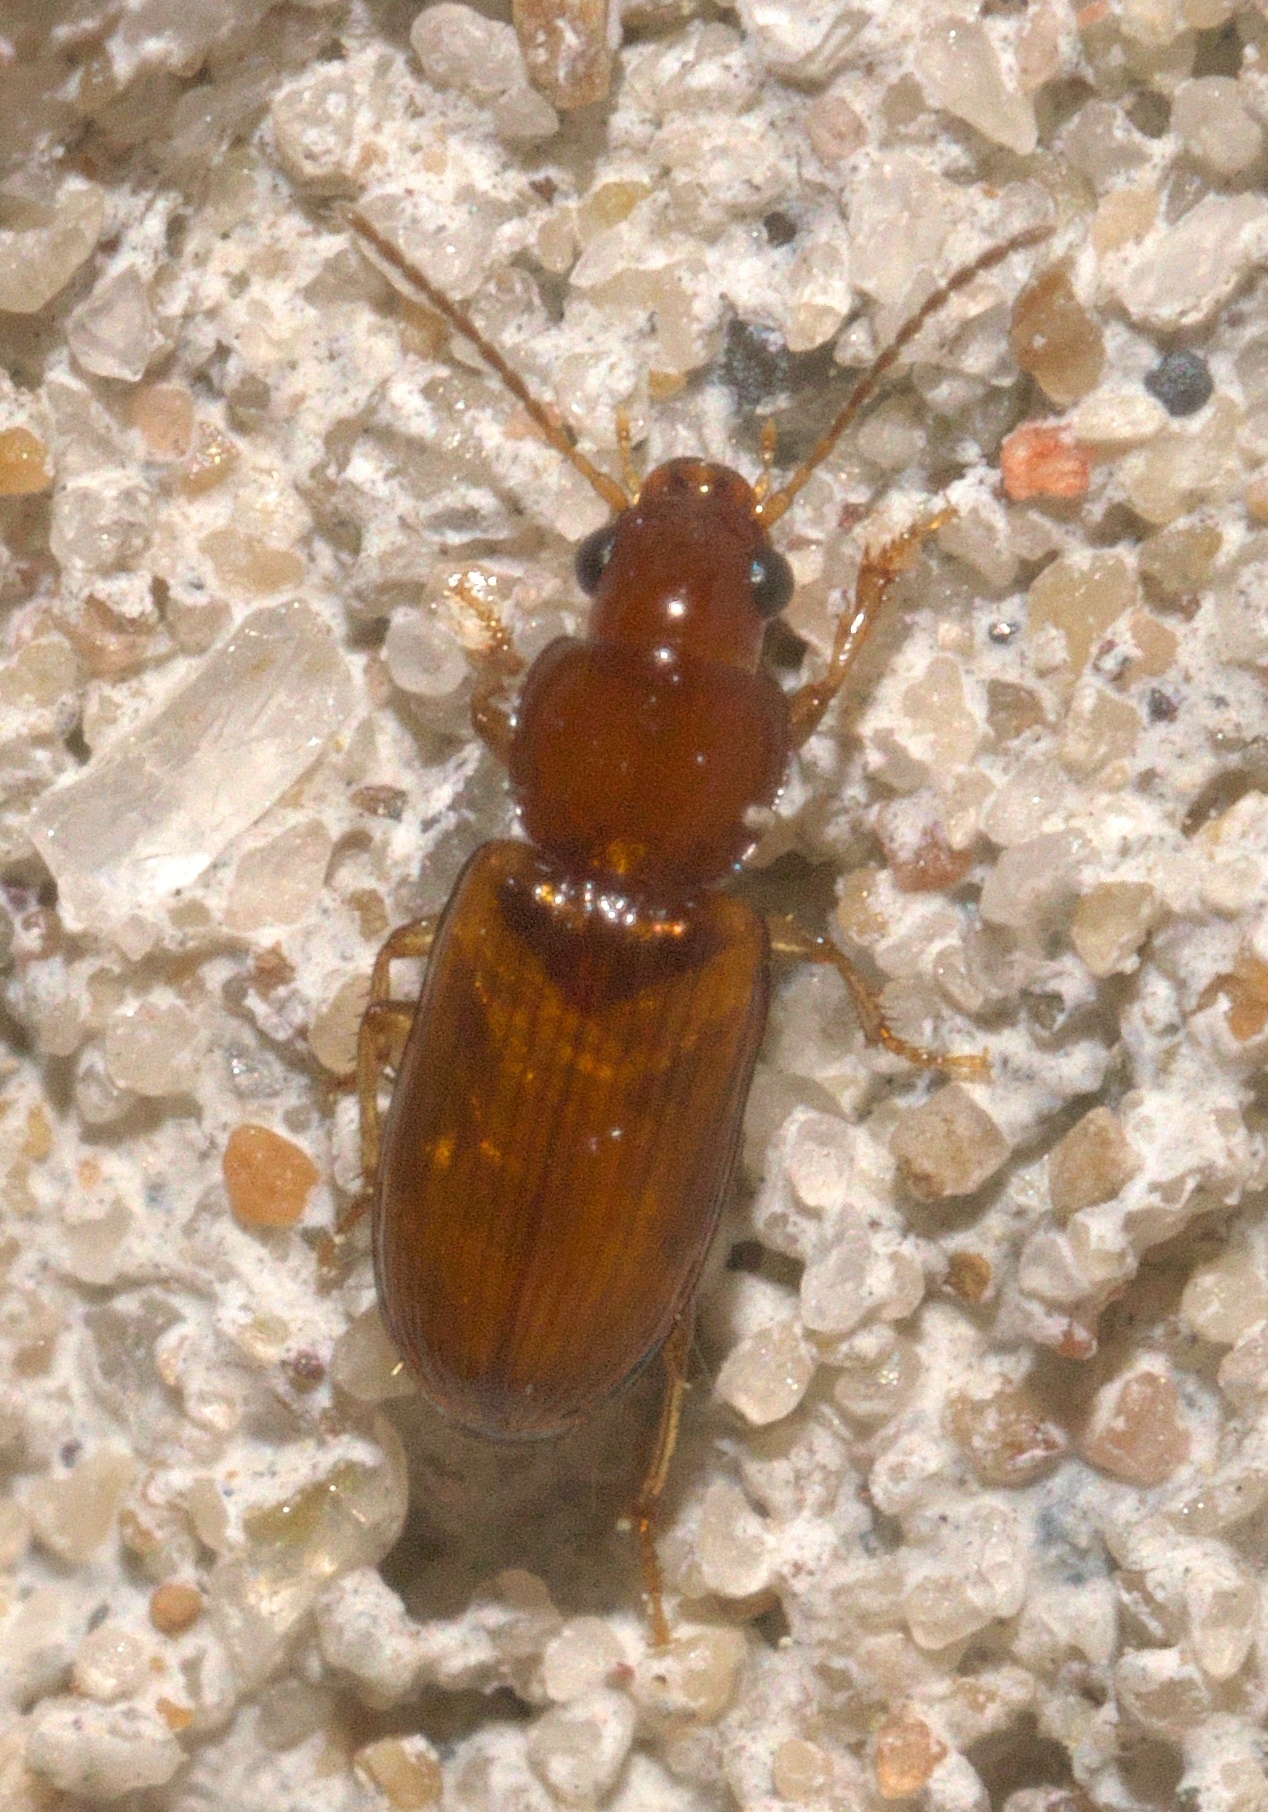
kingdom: Animalia
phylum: Arthropoda
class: Insecta
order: Coleoptera
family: Carabidae
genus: Acupalpus
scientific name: Acupalpus testaceus
